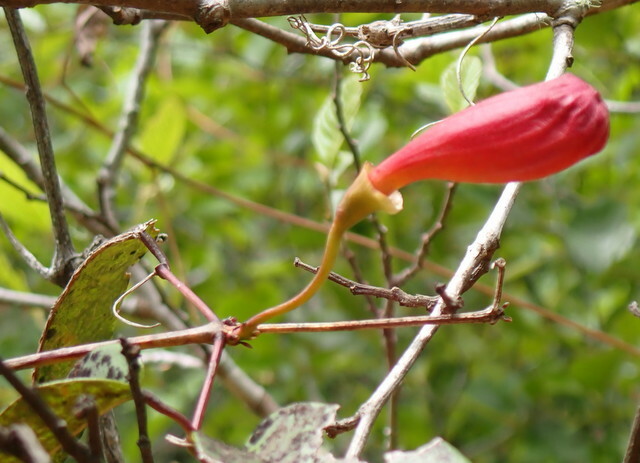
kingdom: Plantae
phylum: Tracheophyta
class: Magnoliopsida
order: Lamiales
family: Bignoniaceae
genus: Bignonia
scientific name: Bignonia capreolata
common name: Crossvine
